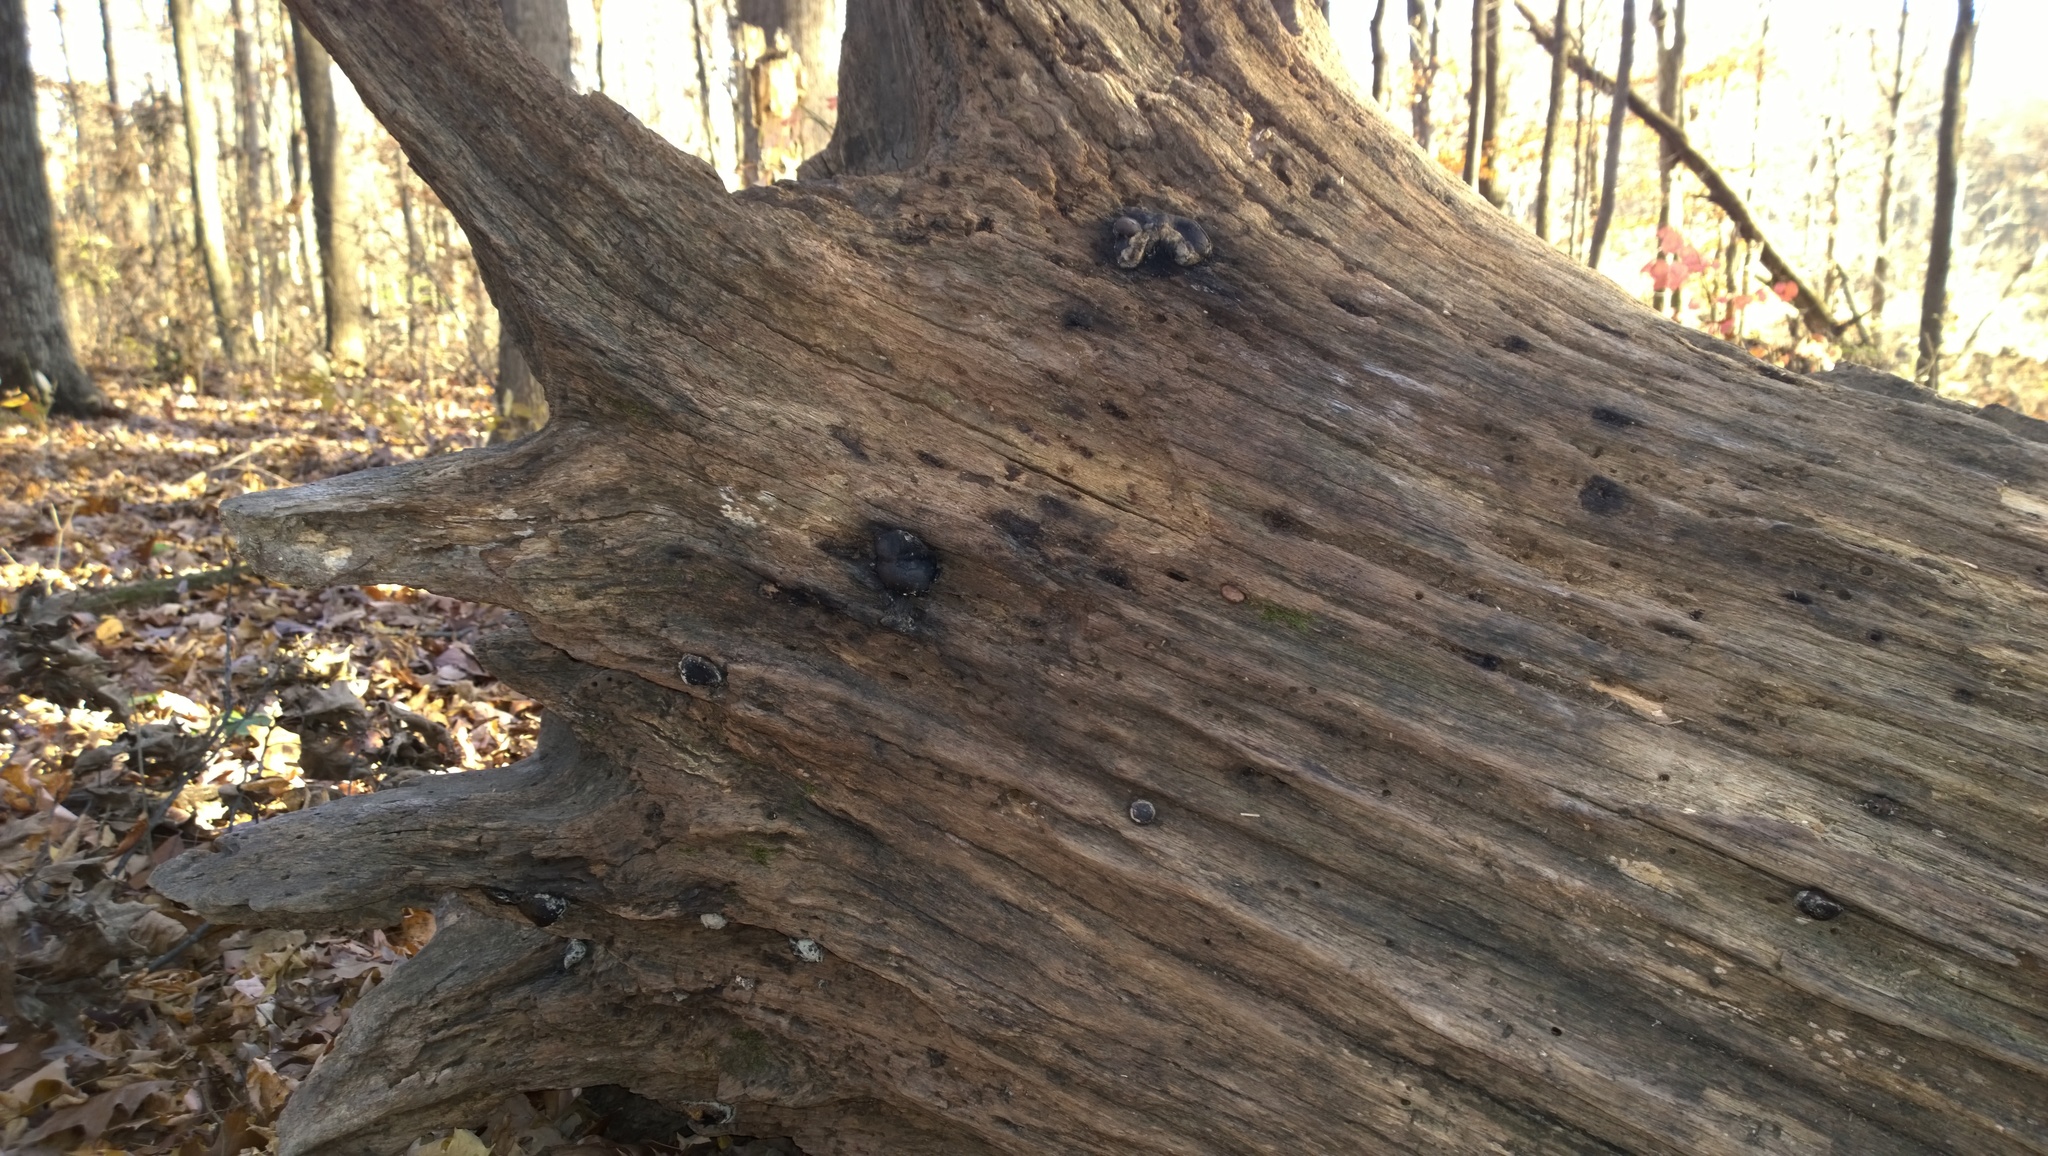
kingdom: Fungi
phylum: Ascomycota
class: Sordariomycetes
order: Boliniales
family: Boliniaceae
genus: Camarops
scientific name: Camarops petersii
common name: Dog's nose fungus
